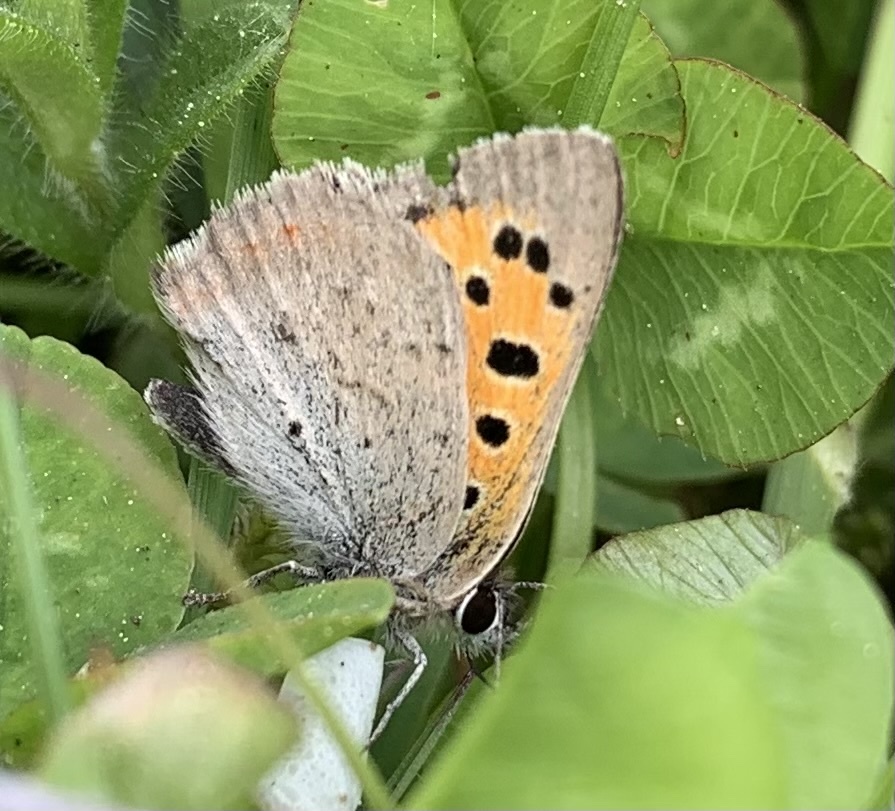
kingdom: Animalia
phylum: Arthropoda
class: Insecta
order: Lepidoptera
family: Lycaenidae
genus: Lycaena
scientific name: Lycaena phlaeas
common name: Small copper
